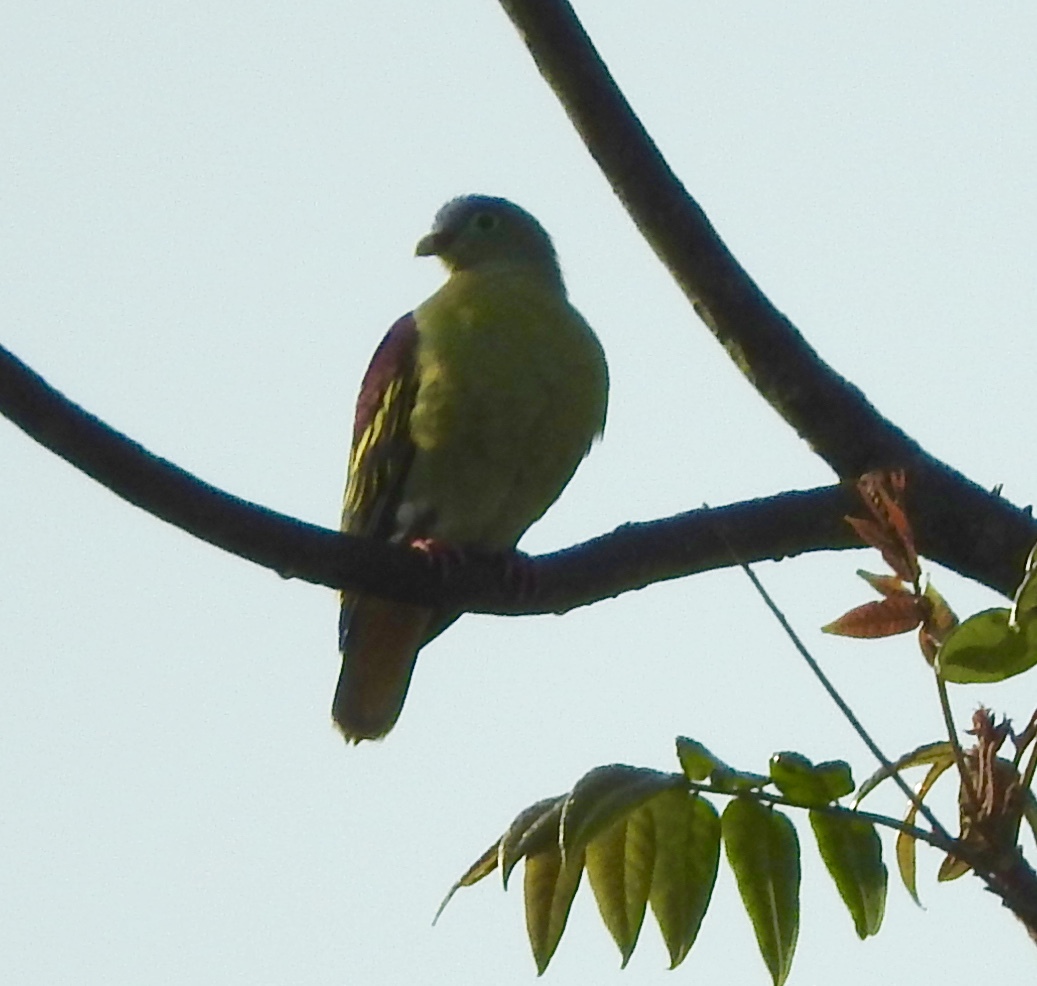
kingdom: Animalia
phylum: Chordata
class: Aves
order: Columbiformes
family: Columbidae
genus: Treron
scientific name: Treron curvirostra
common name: Thick-billed green pigeon
